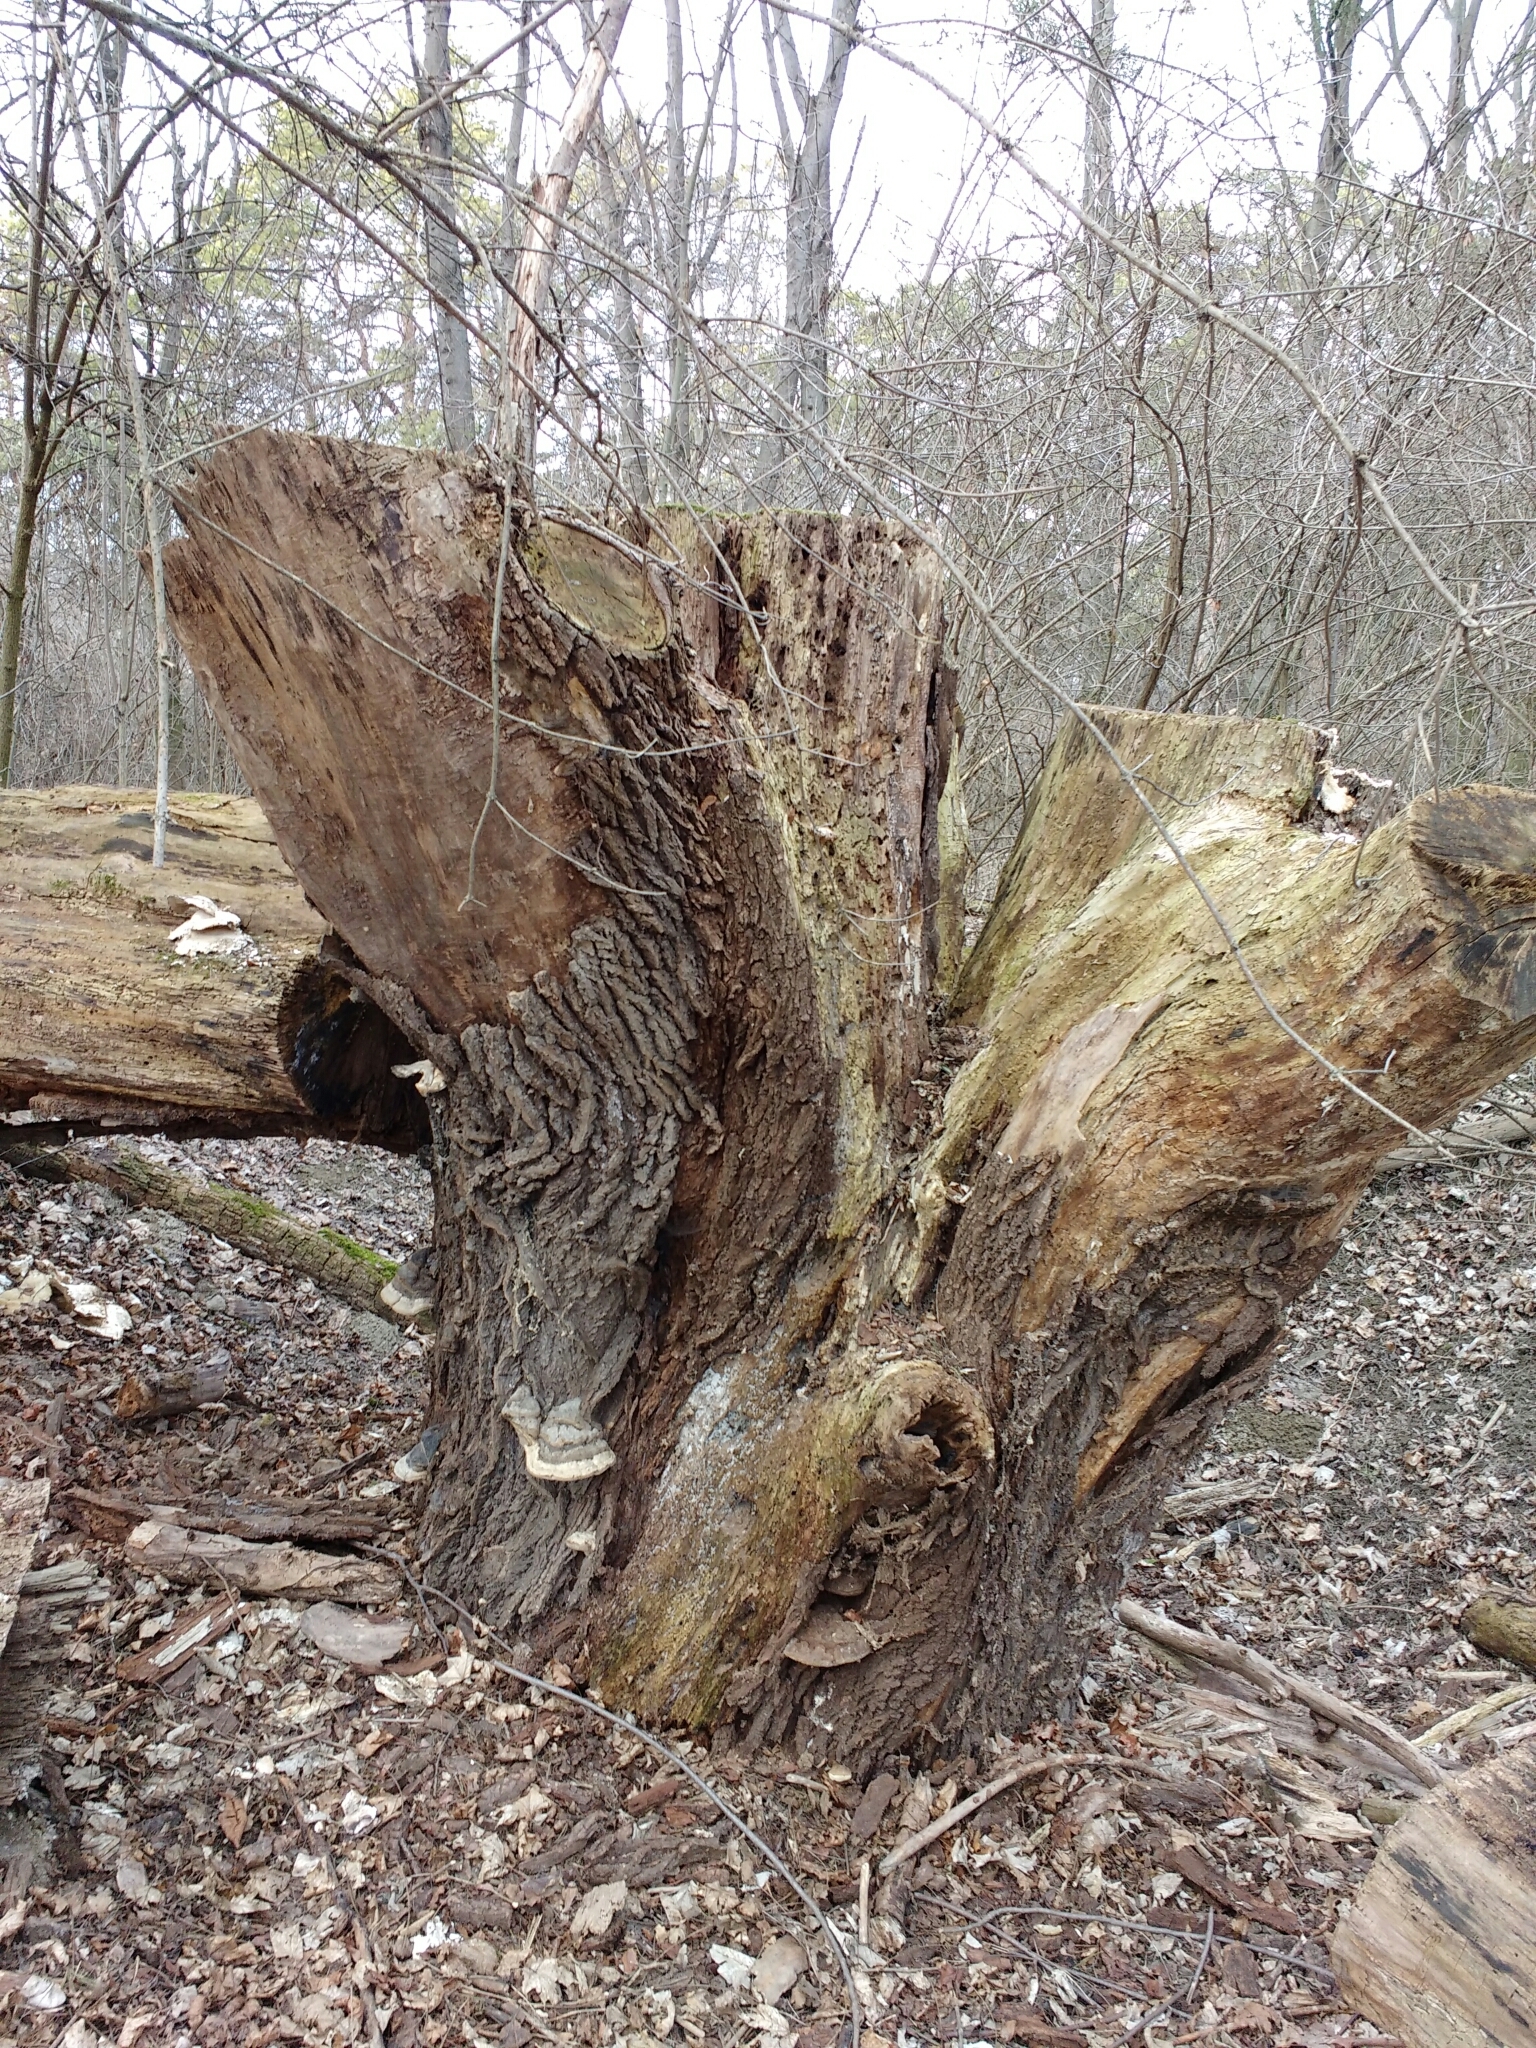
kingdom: Fungi
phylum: Basidiomycota
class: Agaricomycetes
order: Polyporales
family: Polyporaceae
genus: Fomes
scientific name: Fomes fomentarius
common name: Hoof fungus
